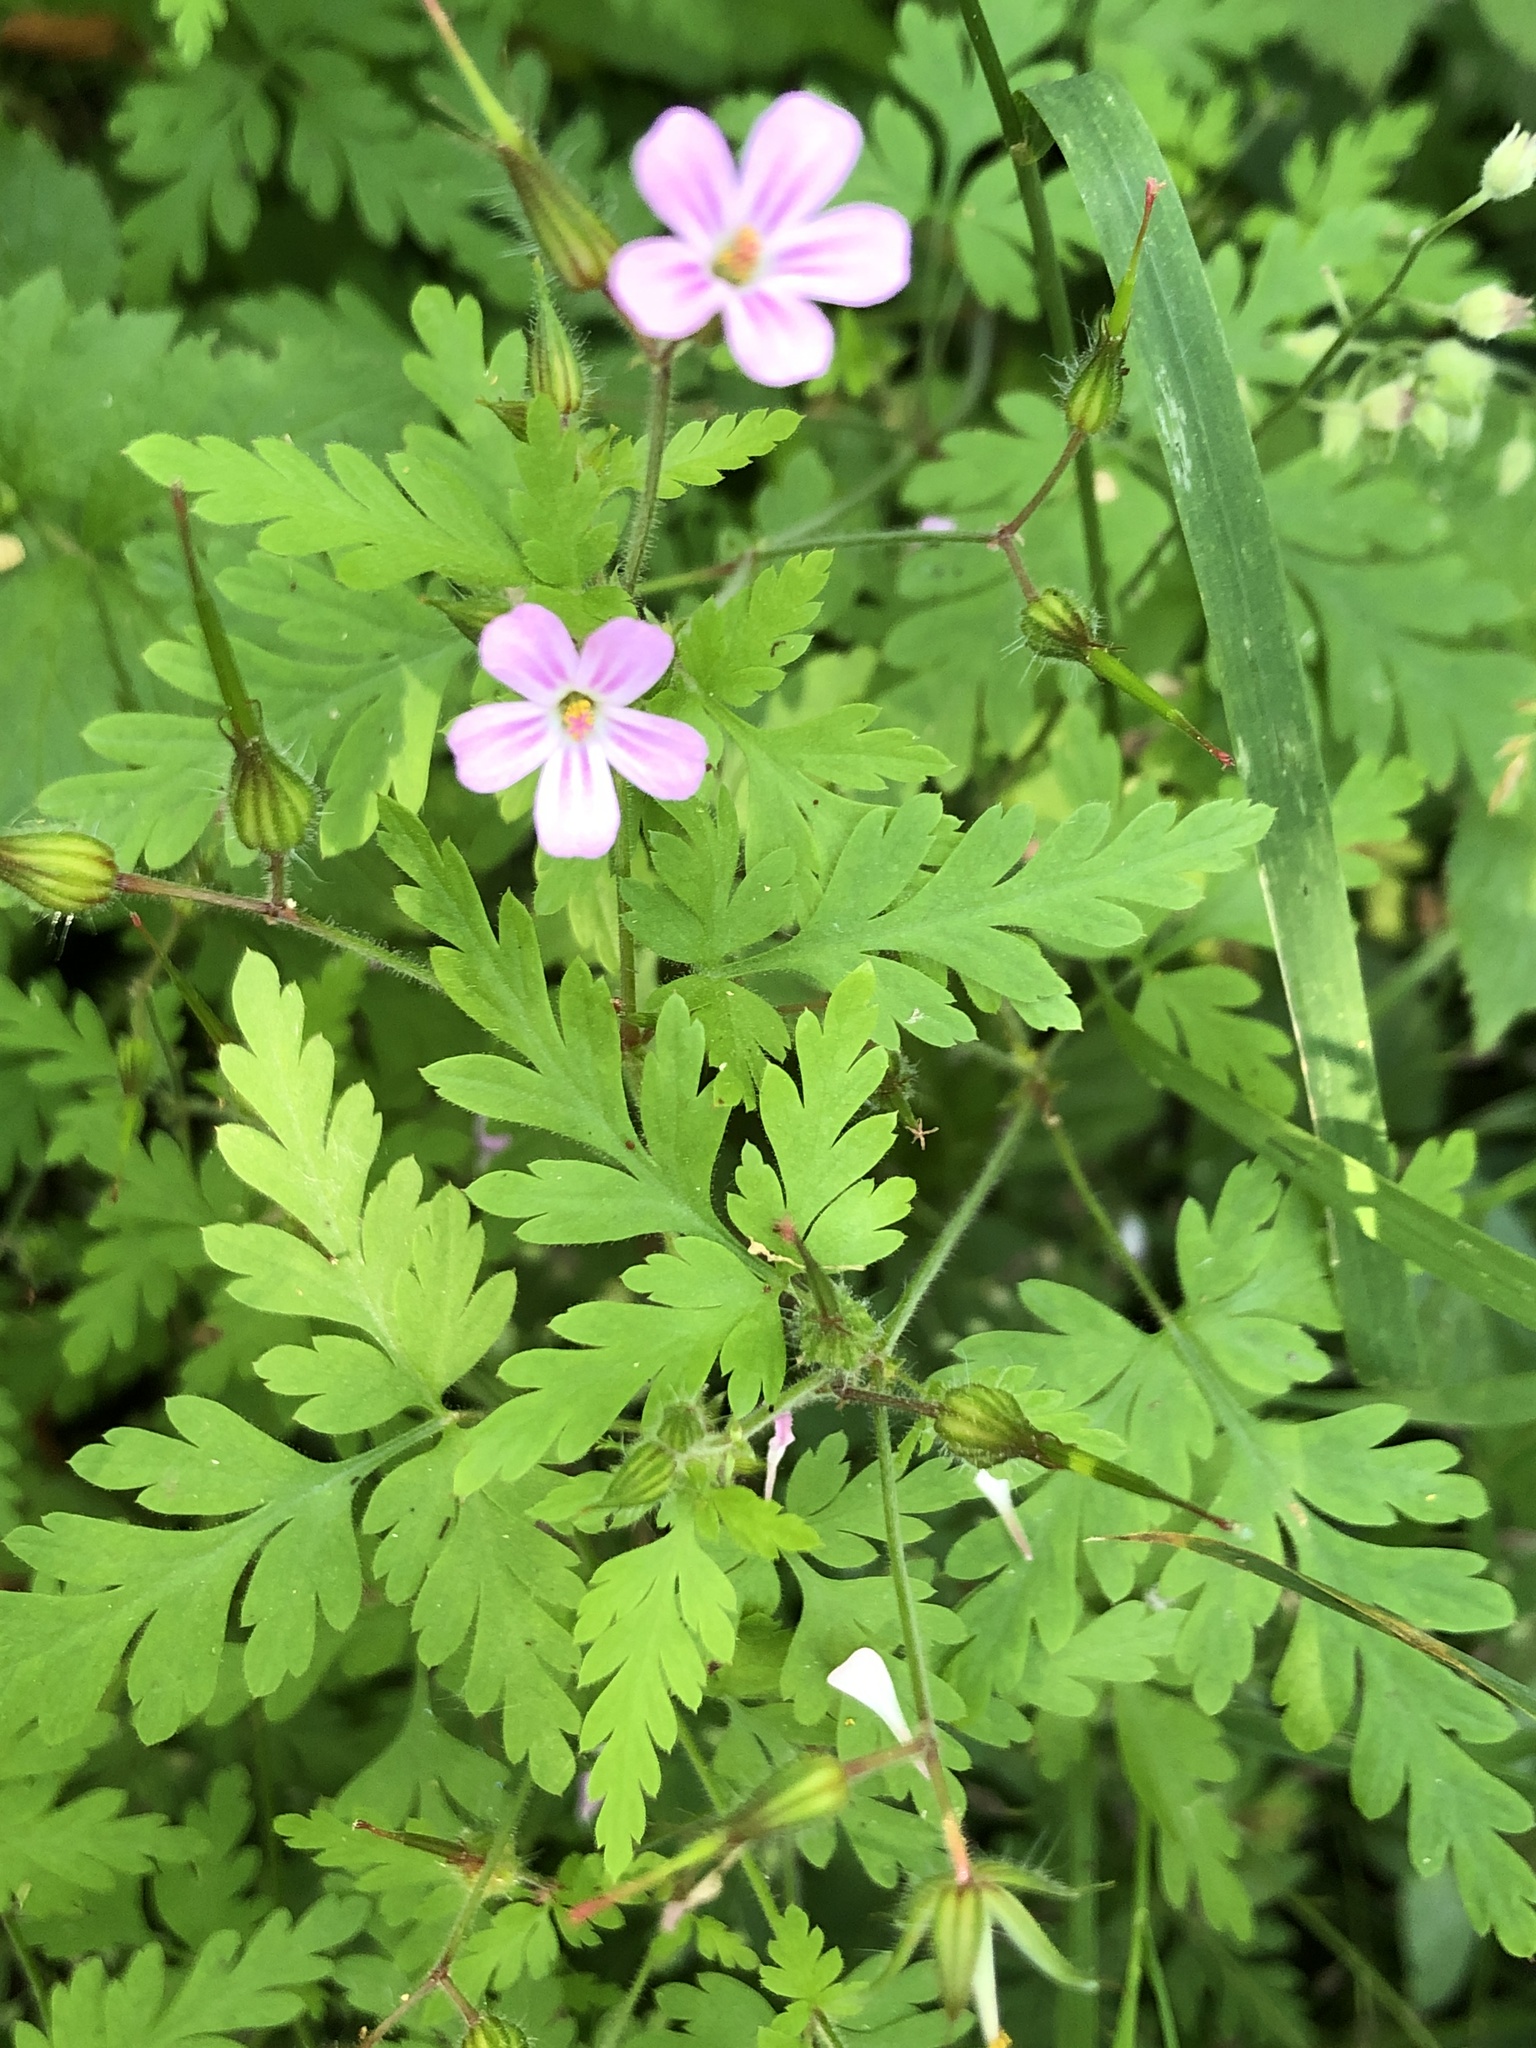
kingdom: Plantae
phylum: Tracheophyta
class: Magnoliopsida
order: Geraniales
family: Geraniaceae
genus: Geranium
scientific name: Geranium robertianum
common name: Herb-robert
